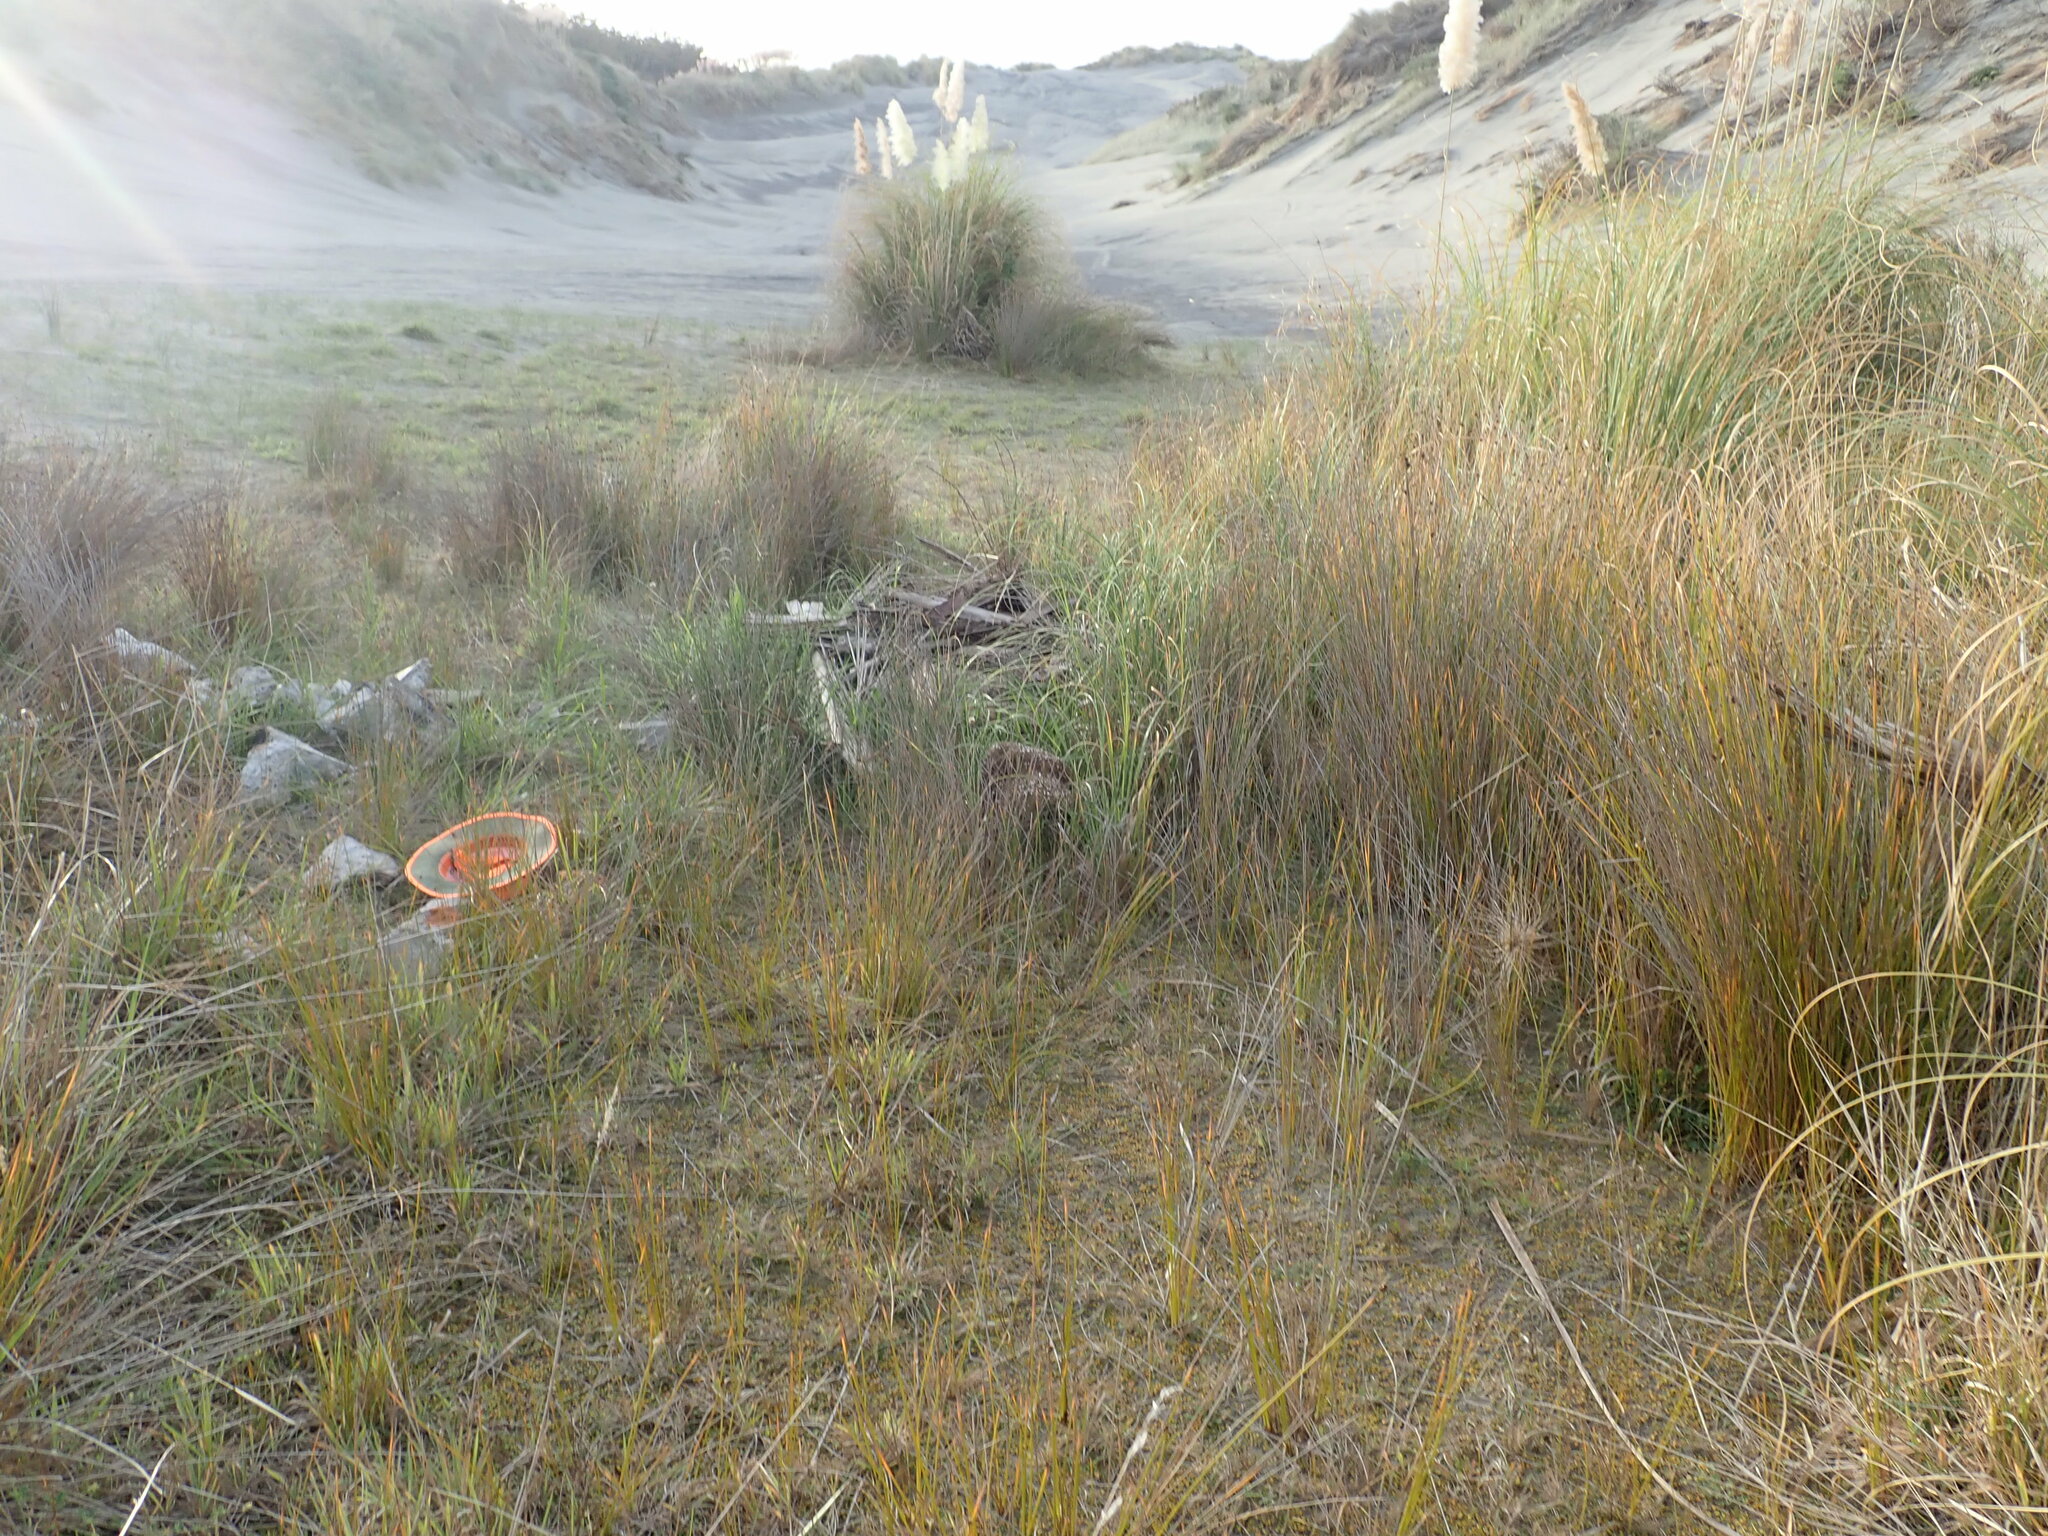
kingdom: Plantae
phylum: Tracheophyta
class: Magnoliopsida
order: Apiales
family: Apiaceae
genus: Lilaeopsis
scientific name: Lilaeopsis novae-zelandiae
